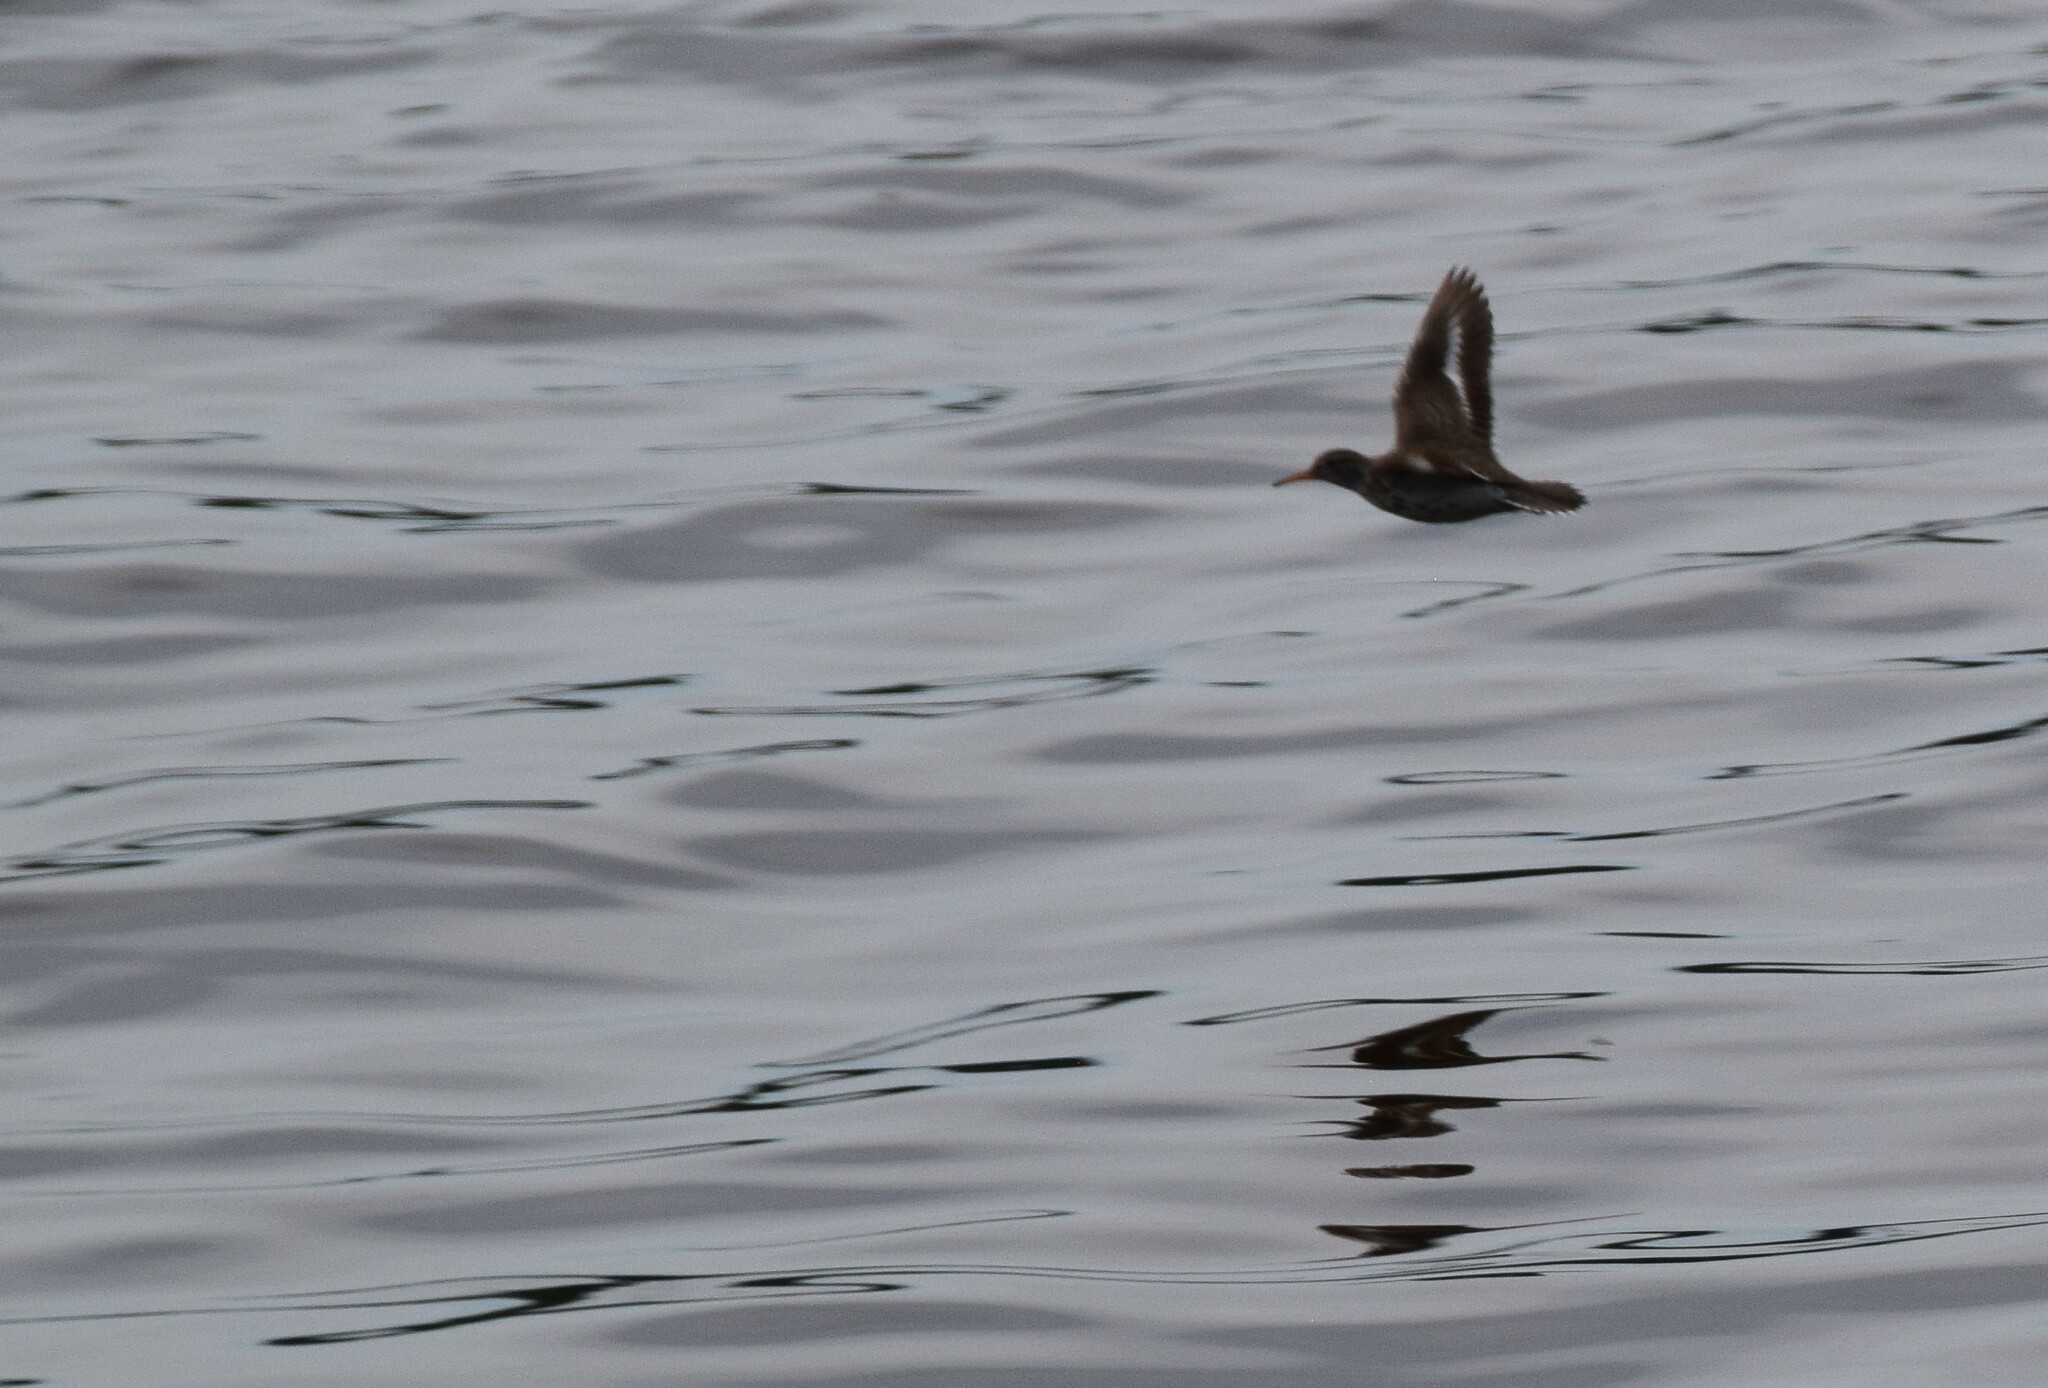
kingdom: Animalia
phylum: Chordata
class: Aves
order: Charadriiformes
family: Scolopacidae
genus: Actitis
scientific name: Actitis macularius
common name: Spotted sandpiper
